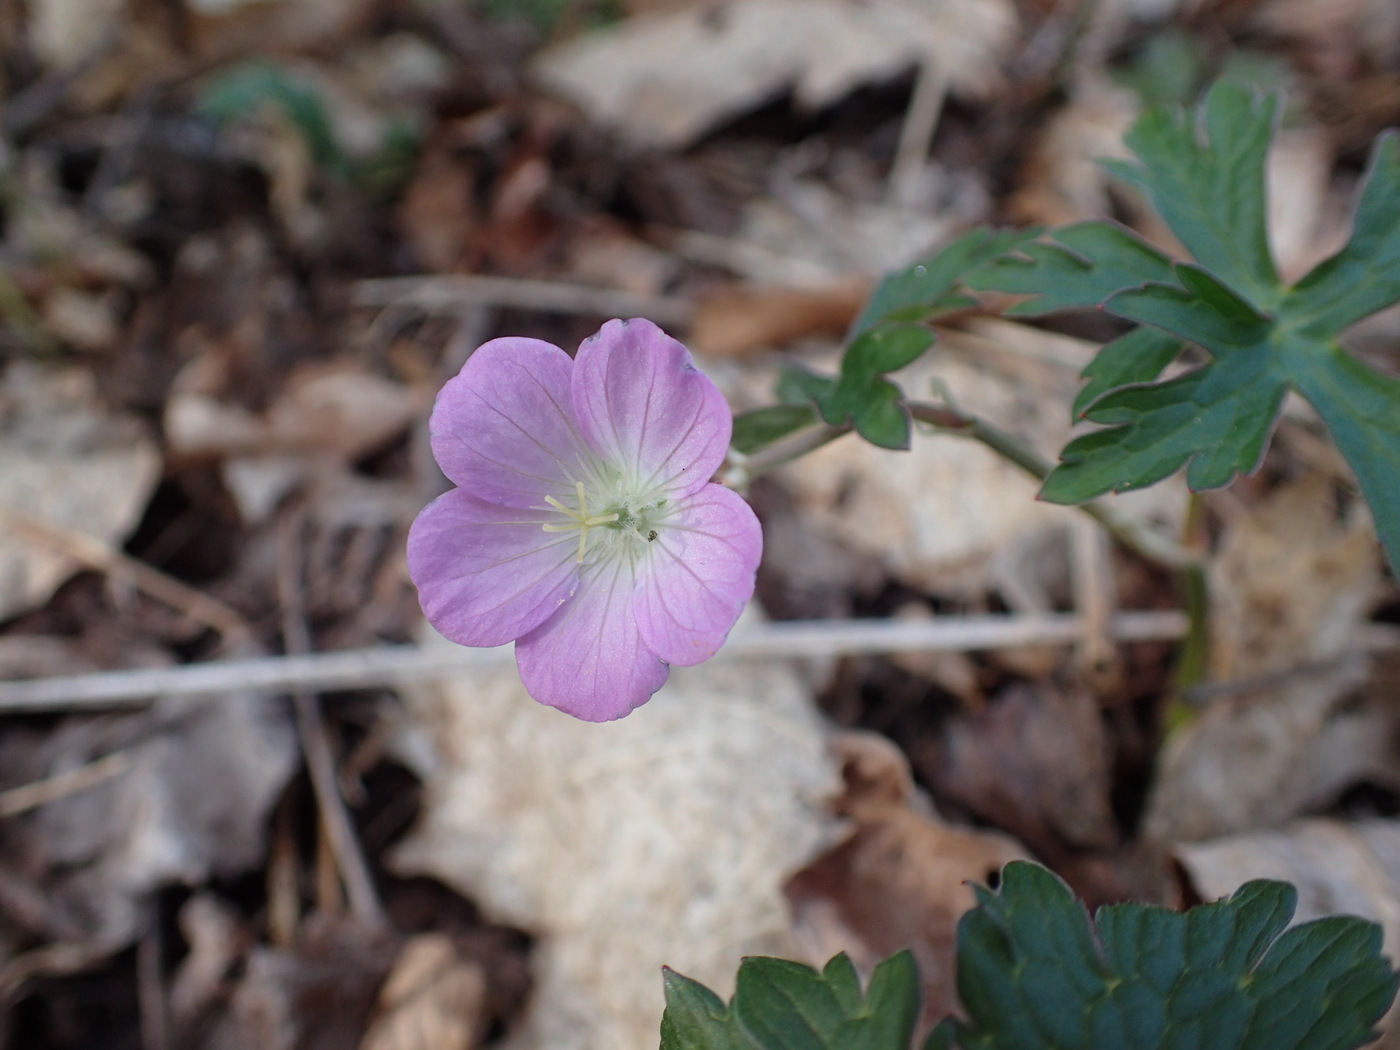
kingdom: Plantae
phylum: Tracheophyta
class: Magnoliopsida
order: Geraniales
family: Geraniaceae
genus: Geranium
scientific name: Geranium maculatum
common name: Spotted geranium
